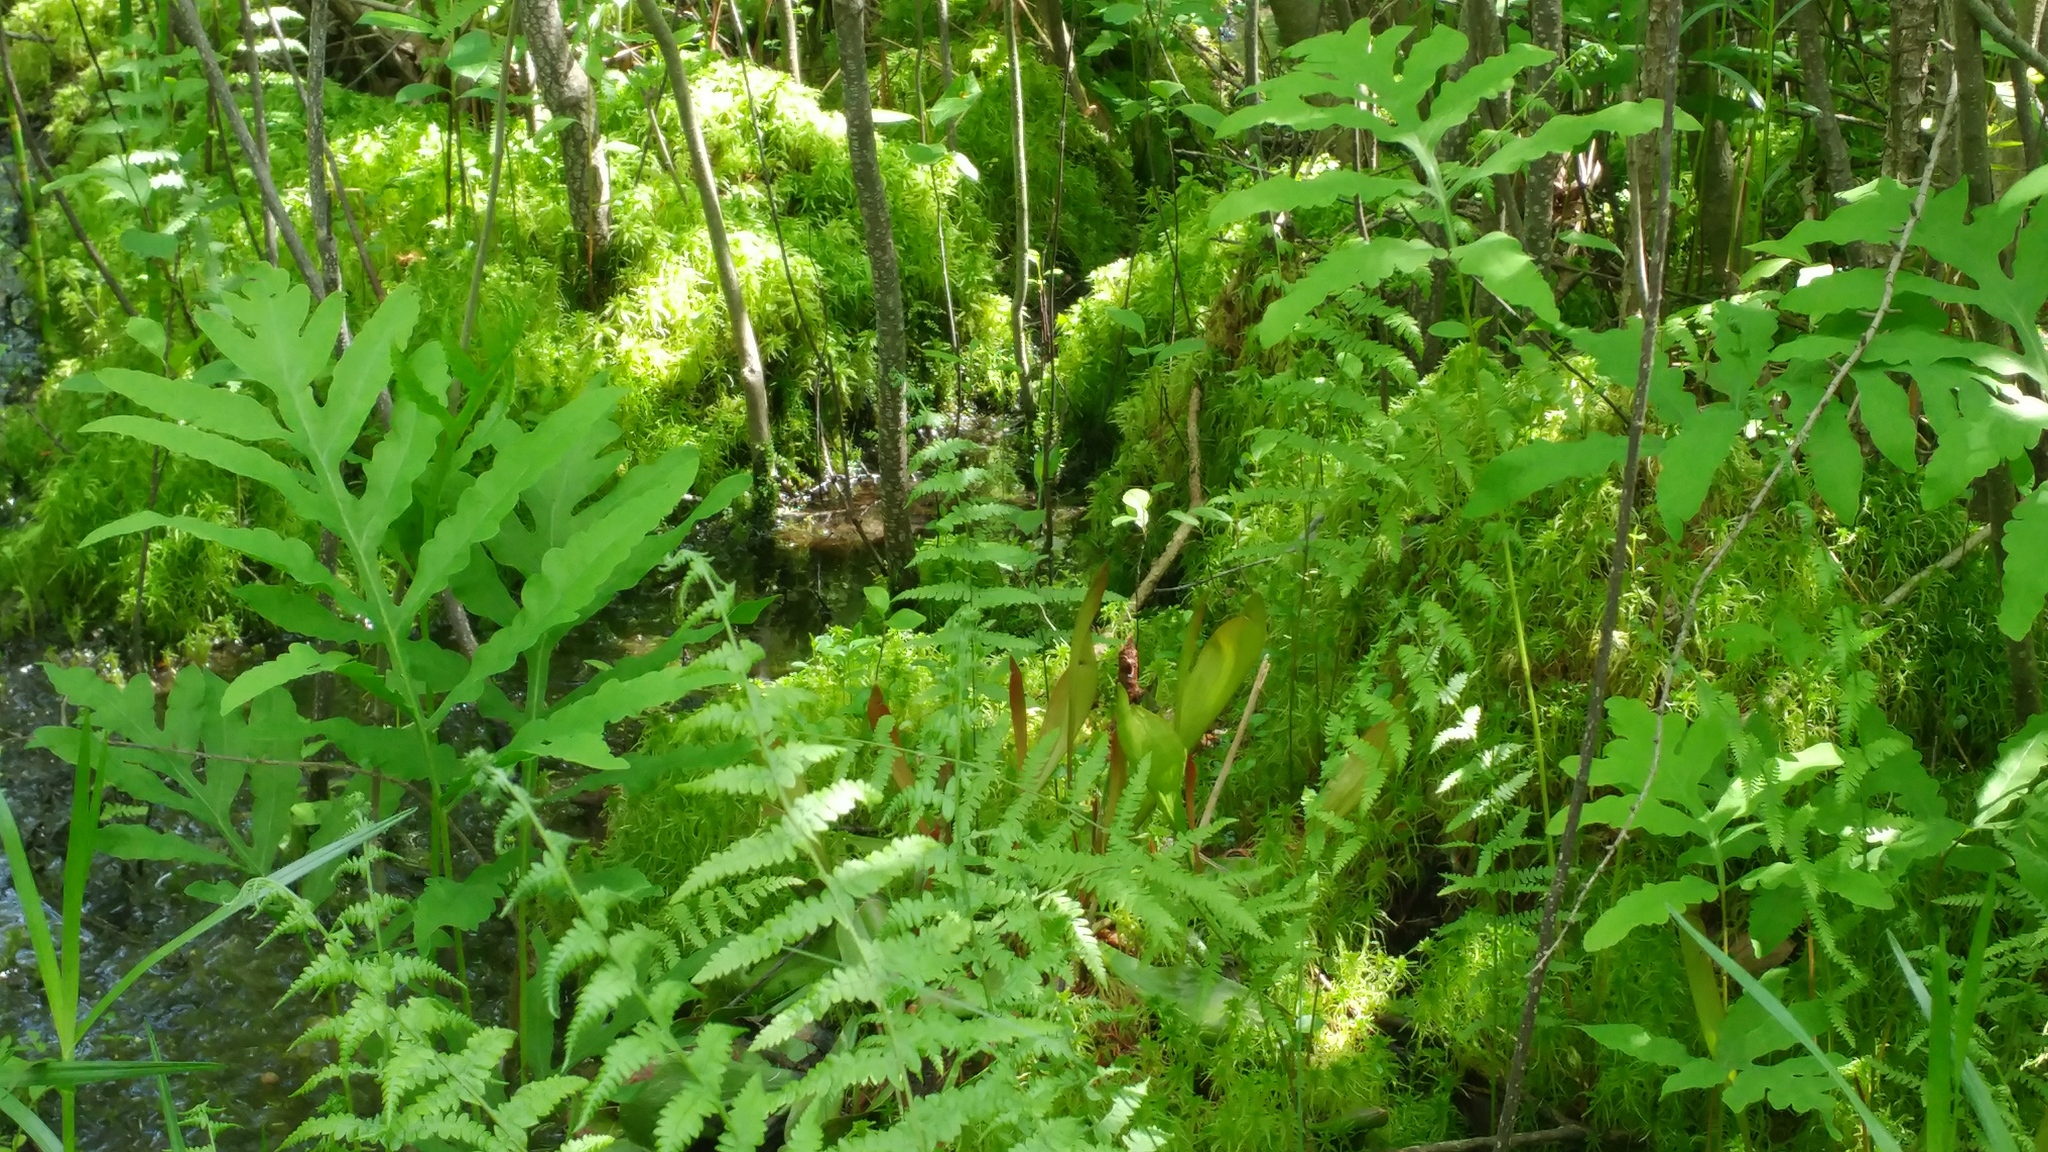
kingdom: Plantae
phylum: Tracheophyta
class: Magnoliopsida
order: Ericales
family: Sarraceniaceae
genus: Sarracenia
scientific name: Sarracenia purpurea
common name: Pitcherplant
